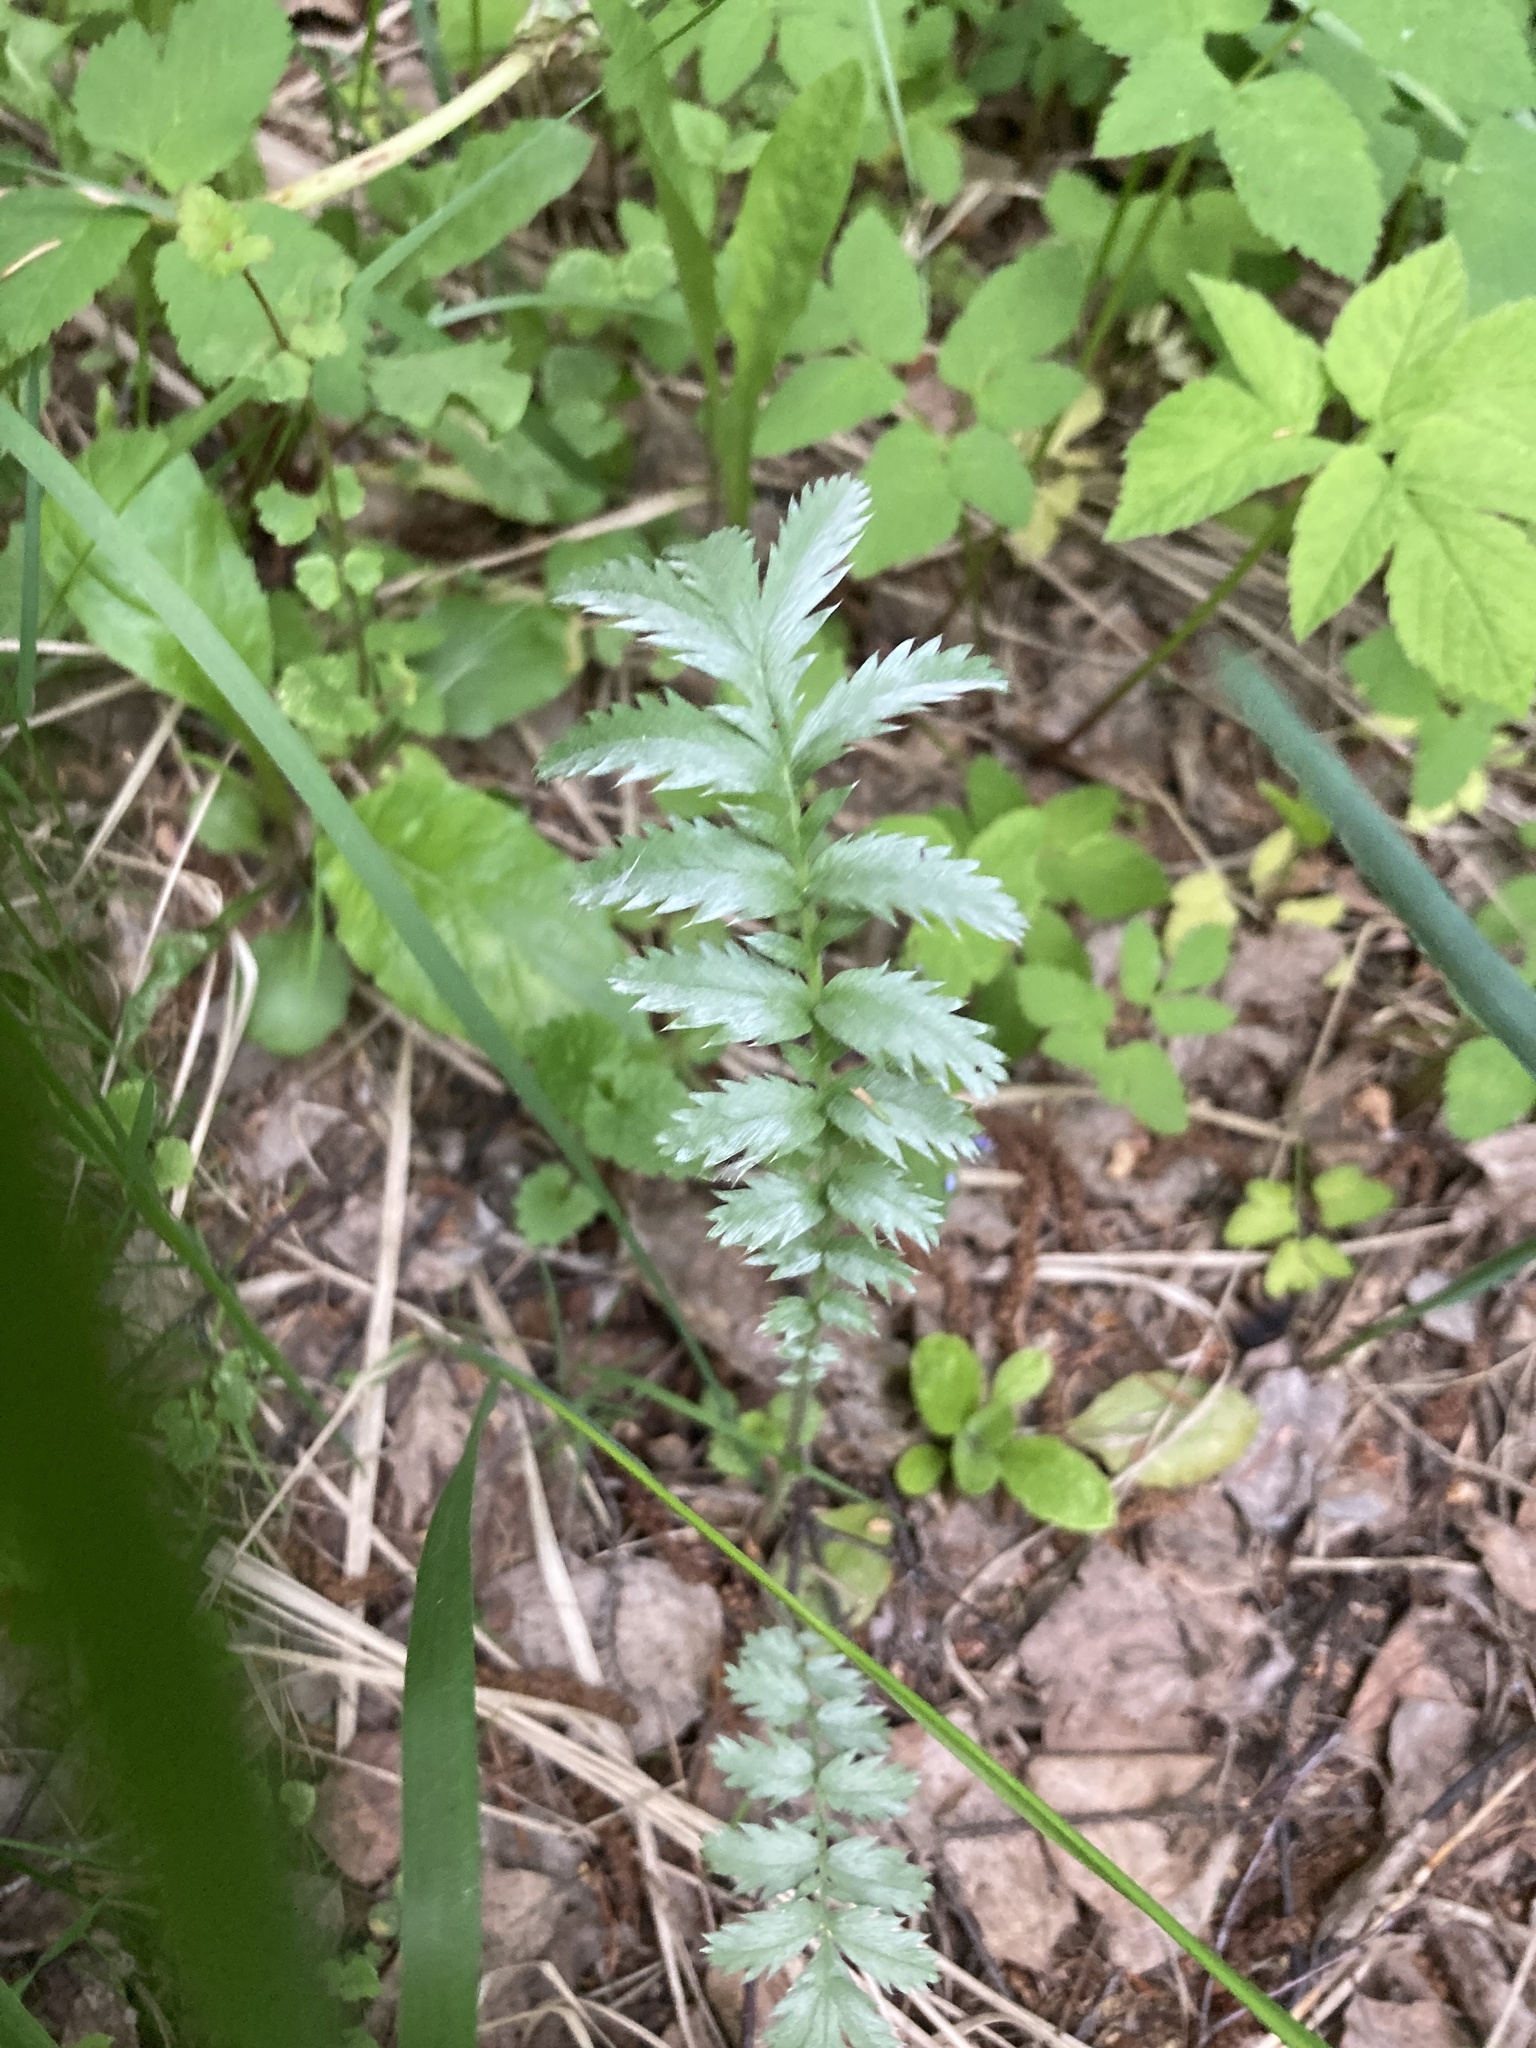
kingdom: Plantae
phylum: Tracheophyta
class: Magnoliopsida
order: Rosales
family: Rosaceae
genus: Argentina
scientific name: Argentina anserina
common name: Common silverweed
